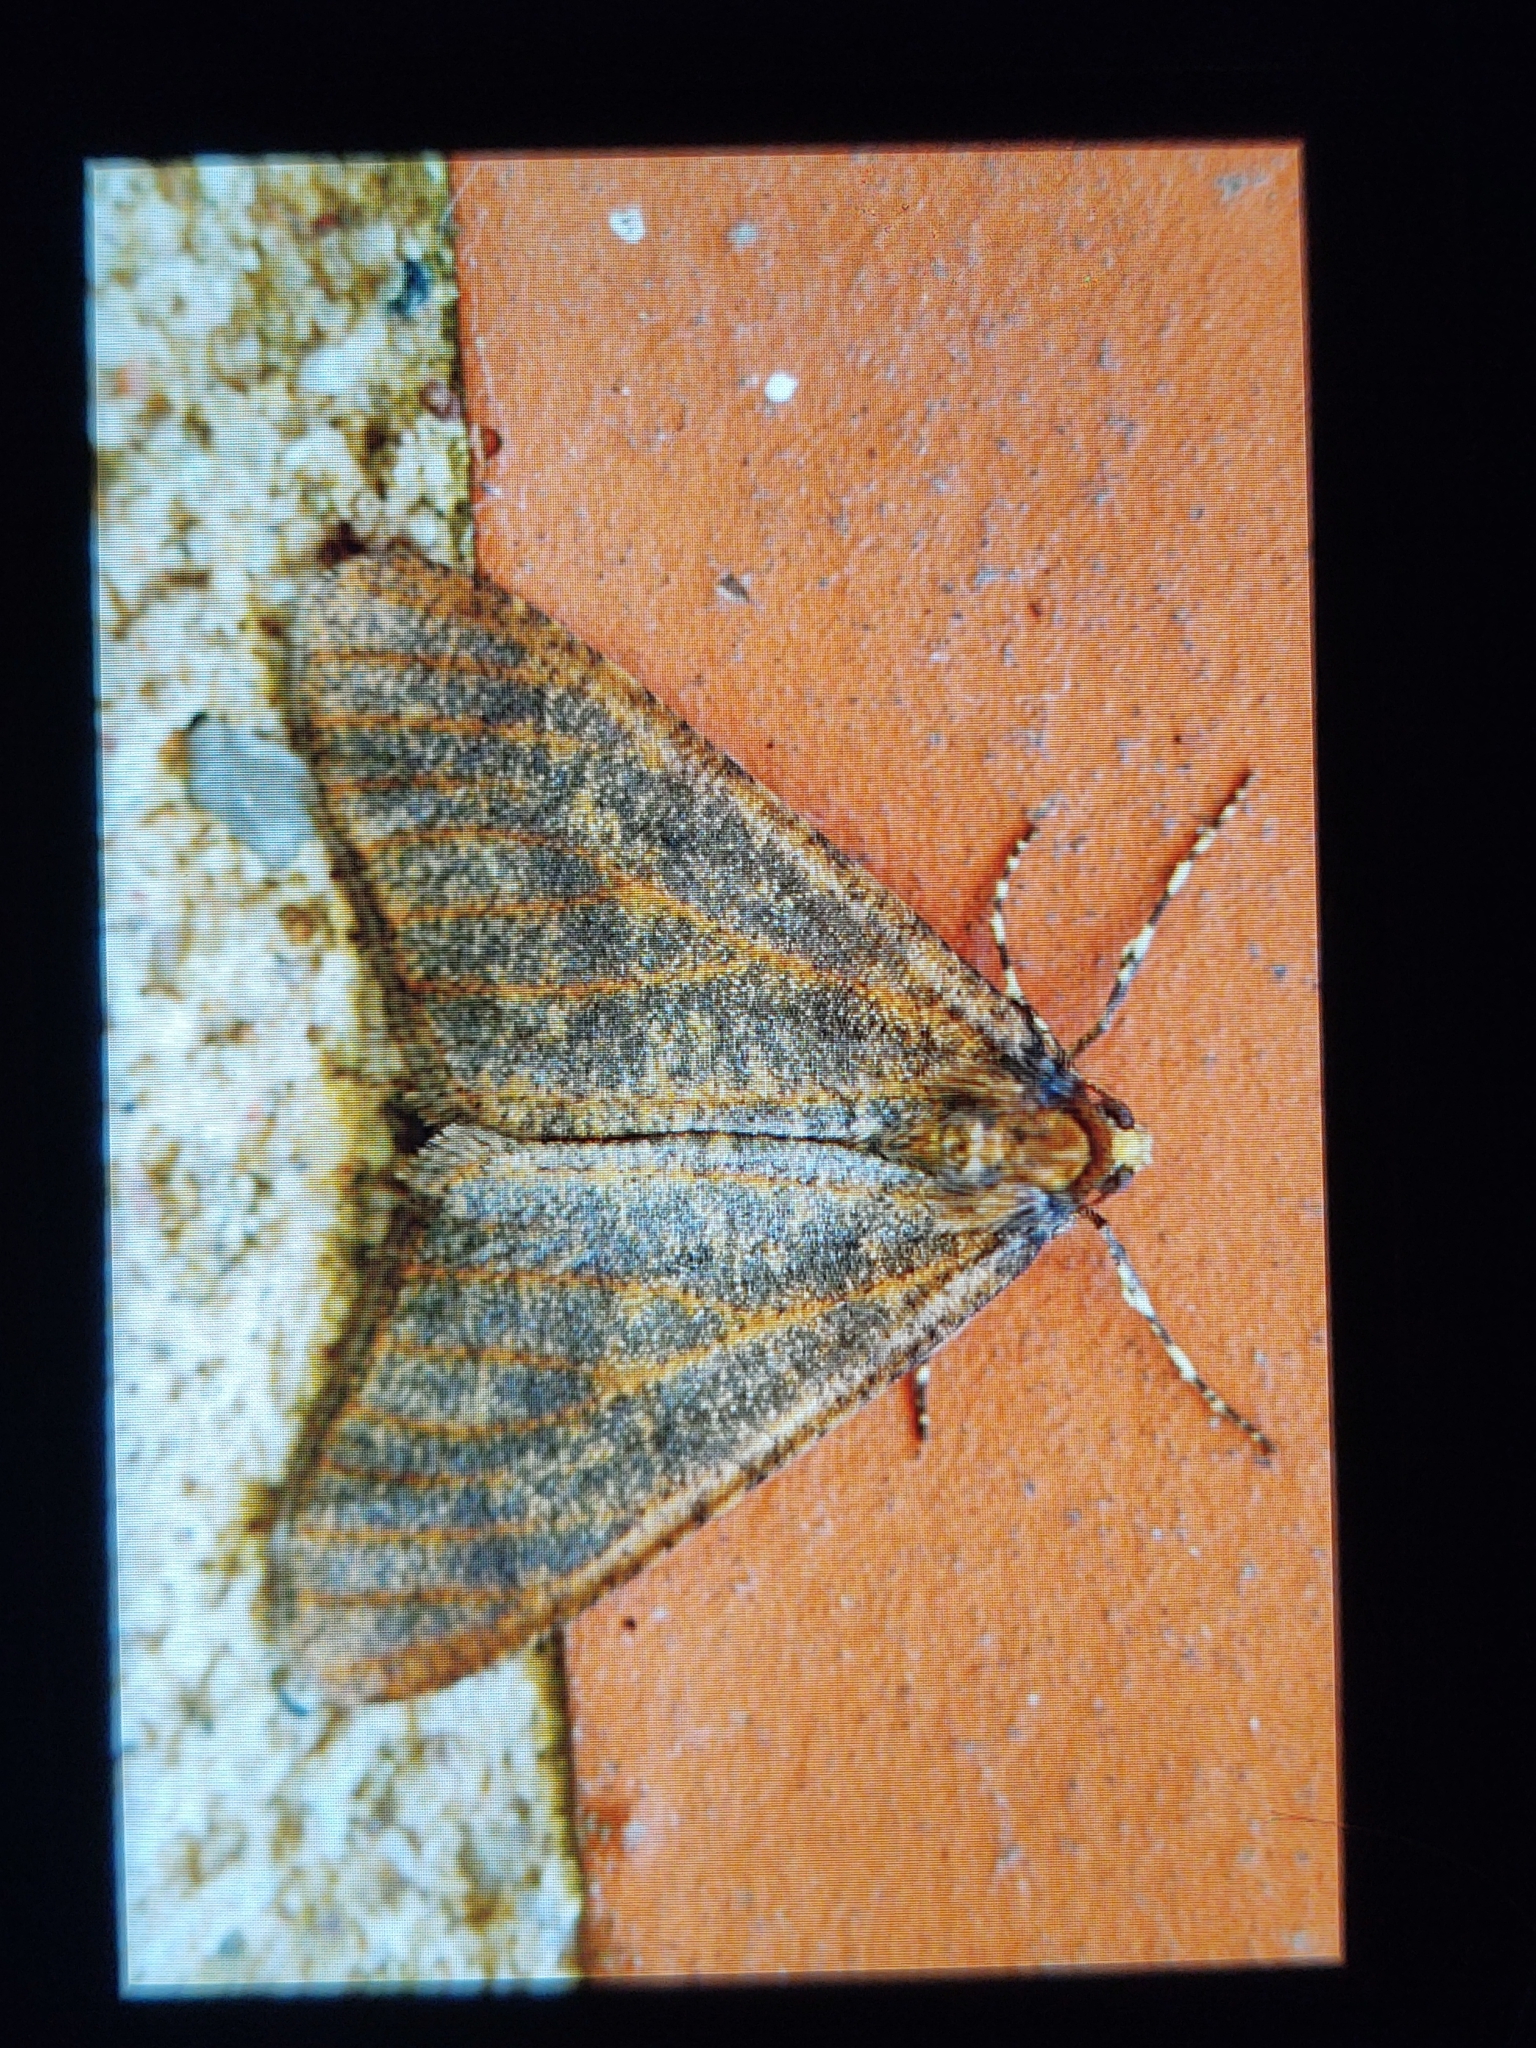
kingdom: Animalia
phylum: Arthropoda
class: Insecta
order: Lepidoptera
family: Geometridae
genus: Erannis
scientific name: Erannis defoliaria
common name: Mottled umber
